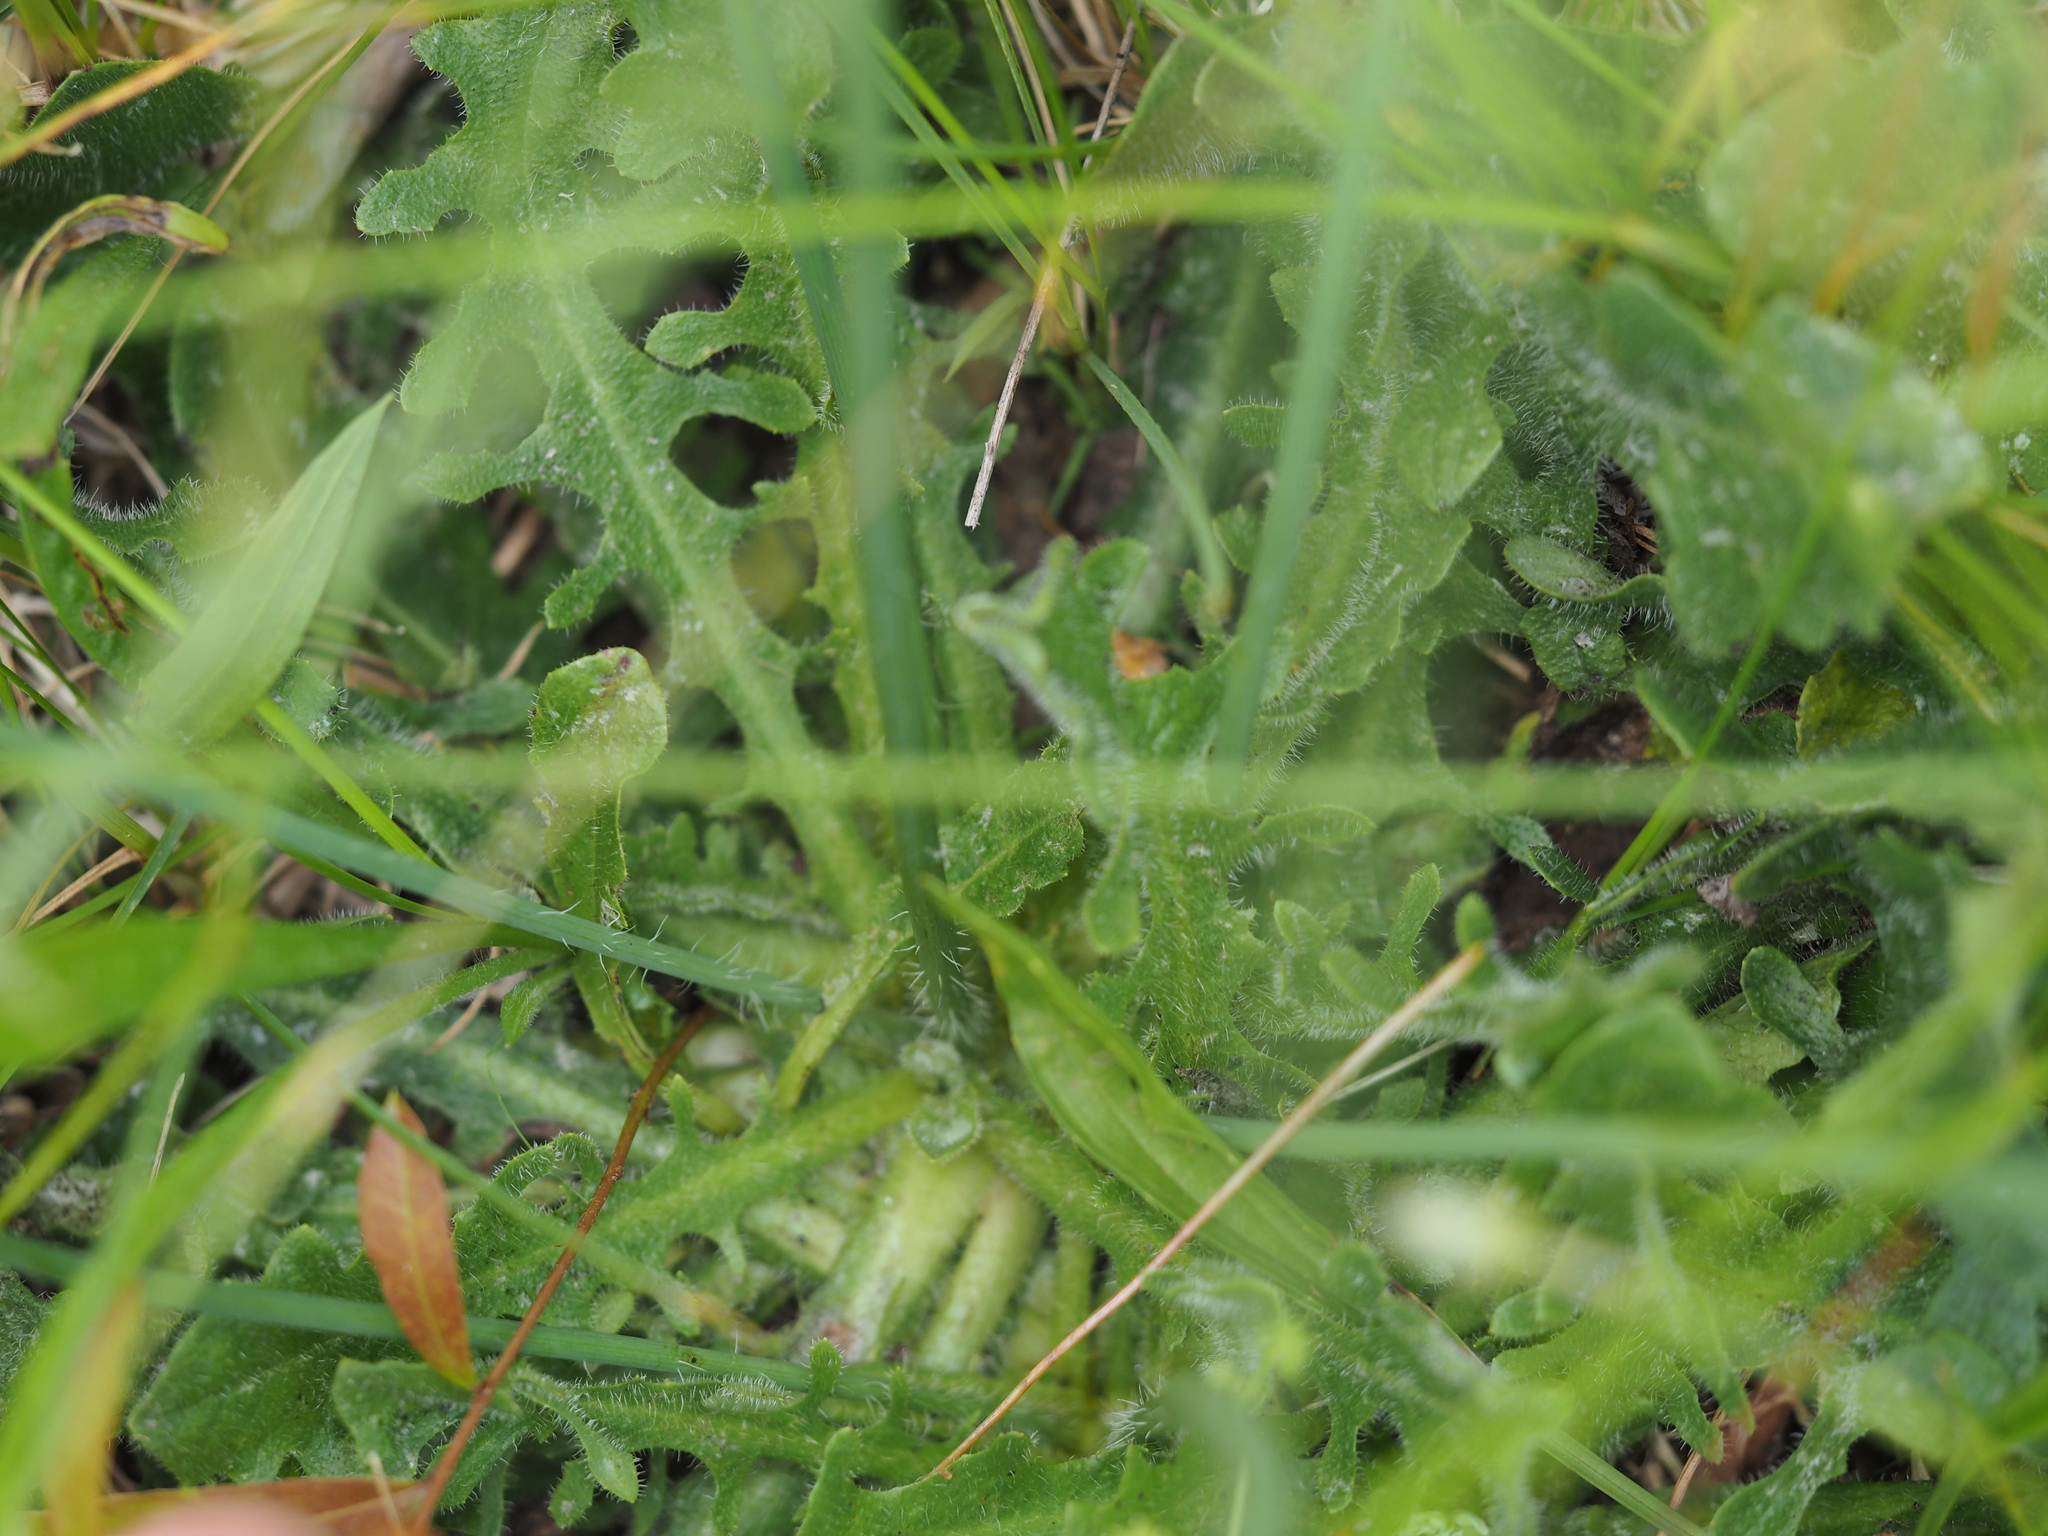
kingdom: Plantae
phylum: Tracheophyta
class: Magnoliopsida
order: Asterales
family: Asteraceae
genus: Hypochaeris
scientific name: Hypochaeris radicata
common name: Flatweed
